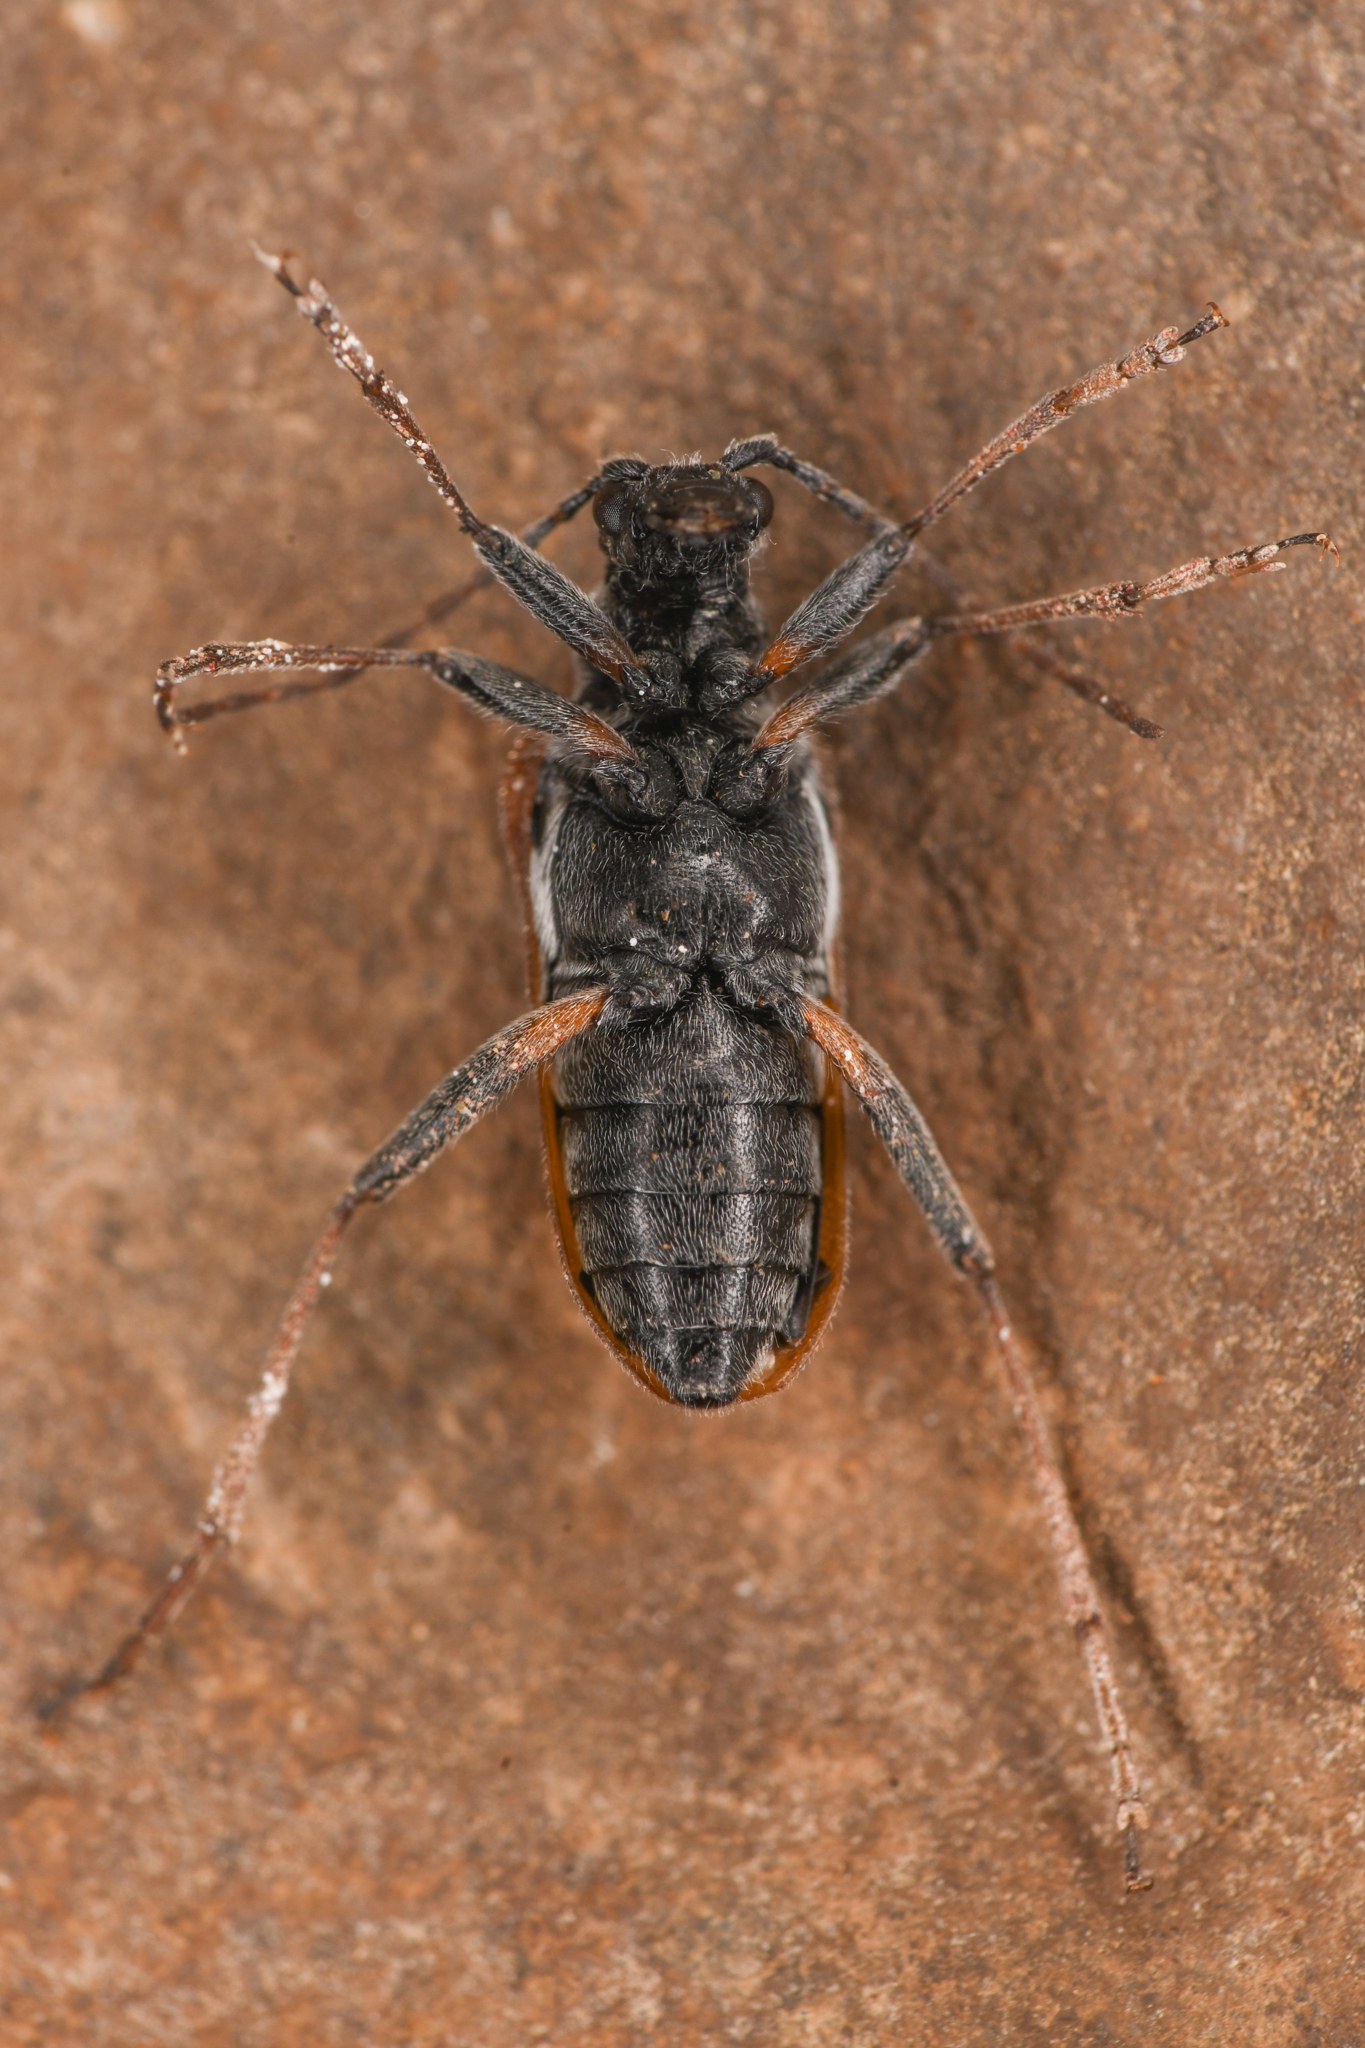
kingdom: Animalia
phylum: Arthropoda
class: Insecta
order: Coleoptera
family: Cerambycidae
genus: Acmaeops
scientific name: Acmaeops proteus
